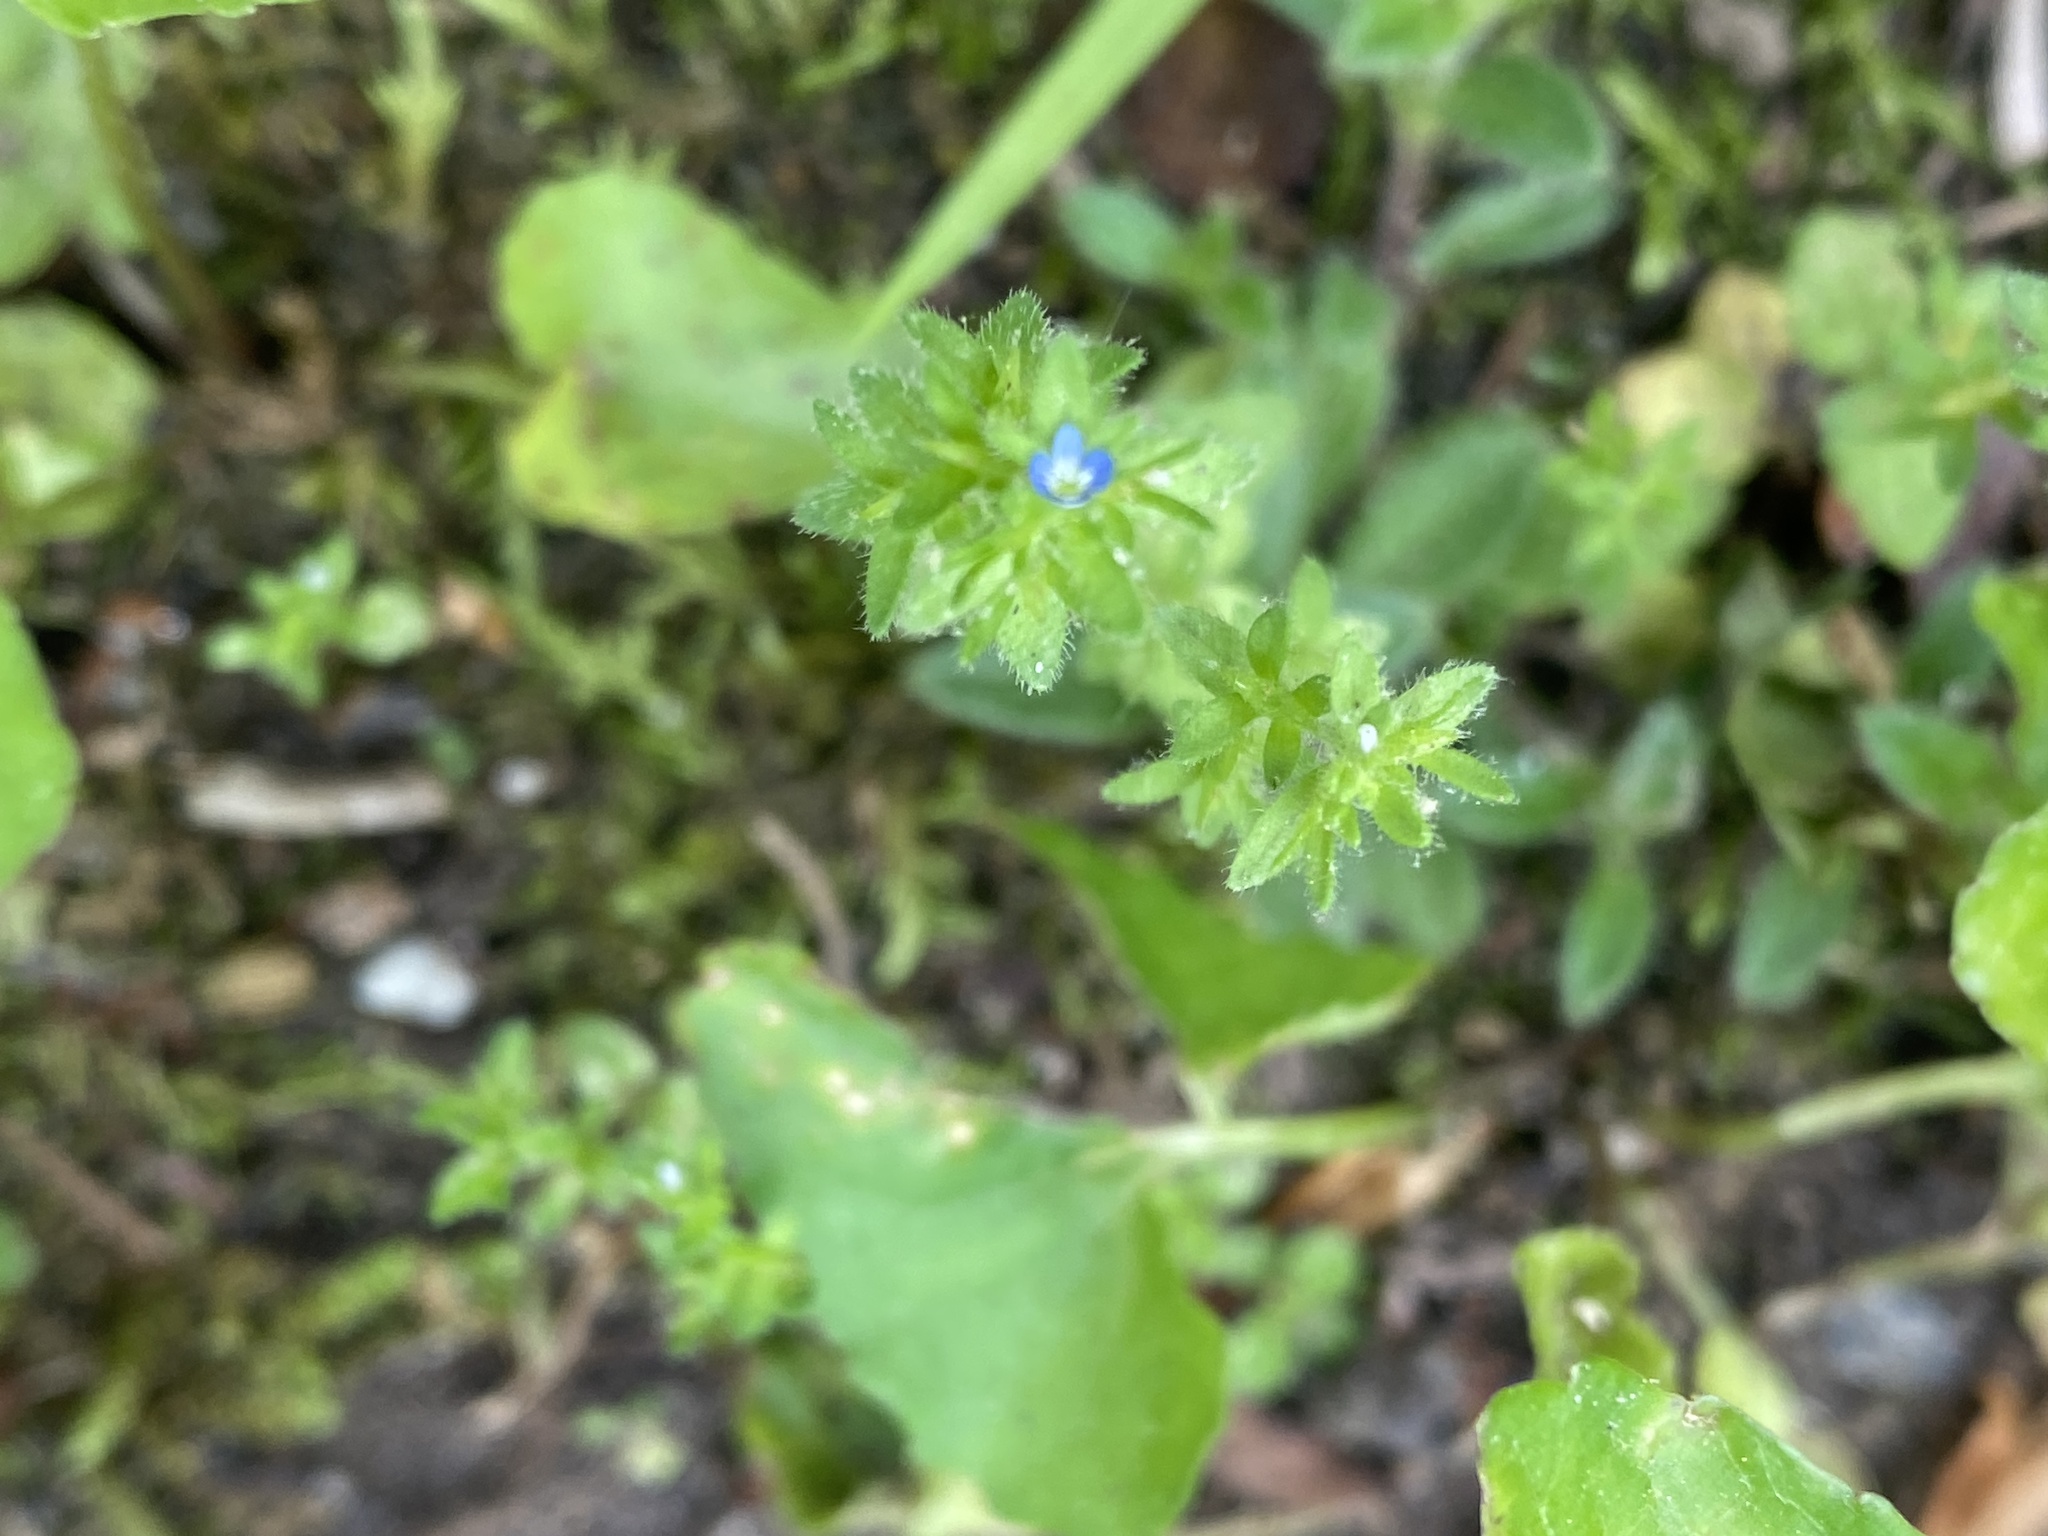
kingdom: Plantae
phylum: Tracheophyta
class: Magnoliopsida
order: Lamiales
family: Plantaginaceae
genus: Veronica
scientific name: Veronica arvensis
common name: Corn speedwell
